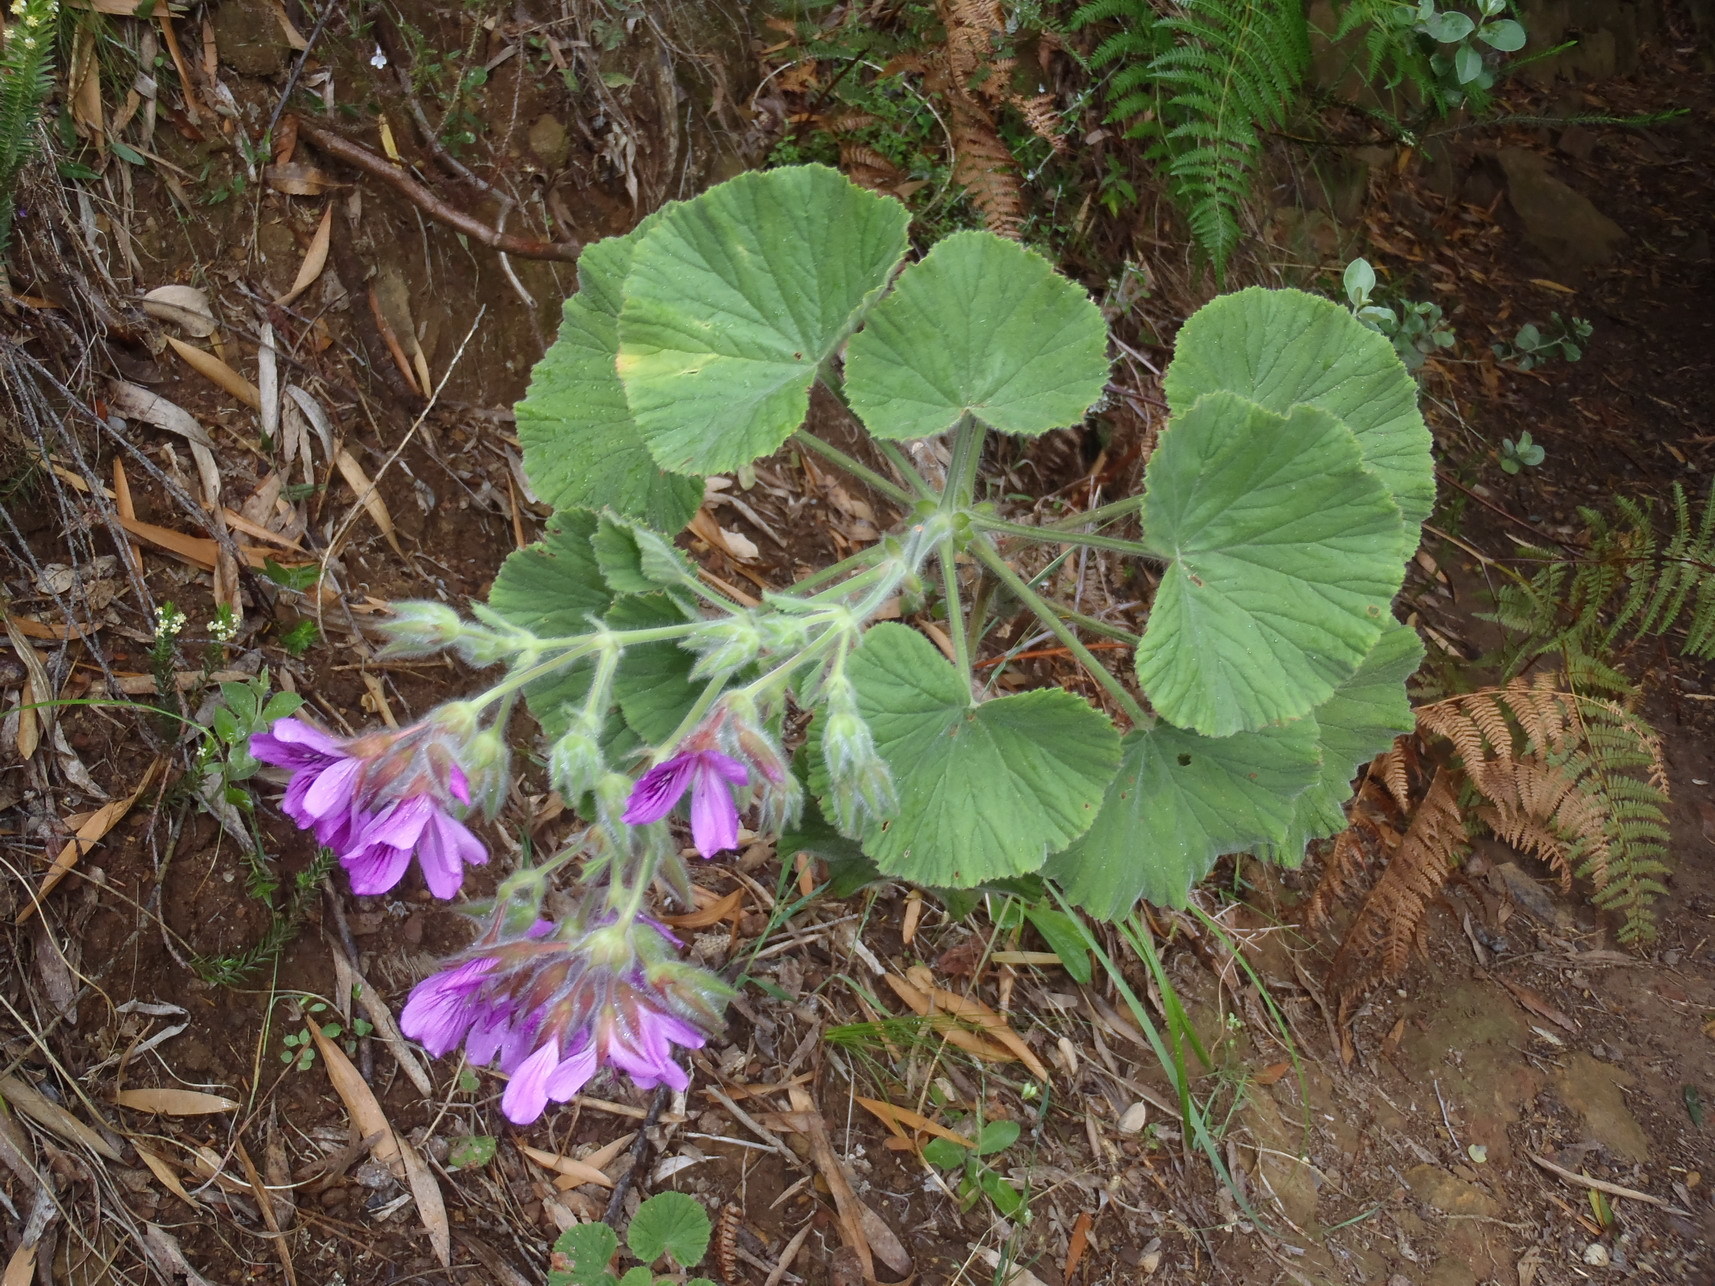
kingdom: Plantae
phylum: Tracheophyta
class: Magnoliopsida
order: Geraniales
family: Geraniaceae
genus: Pelargonium
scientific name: Pelargonium cucullatum
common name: Tree pelargonium
